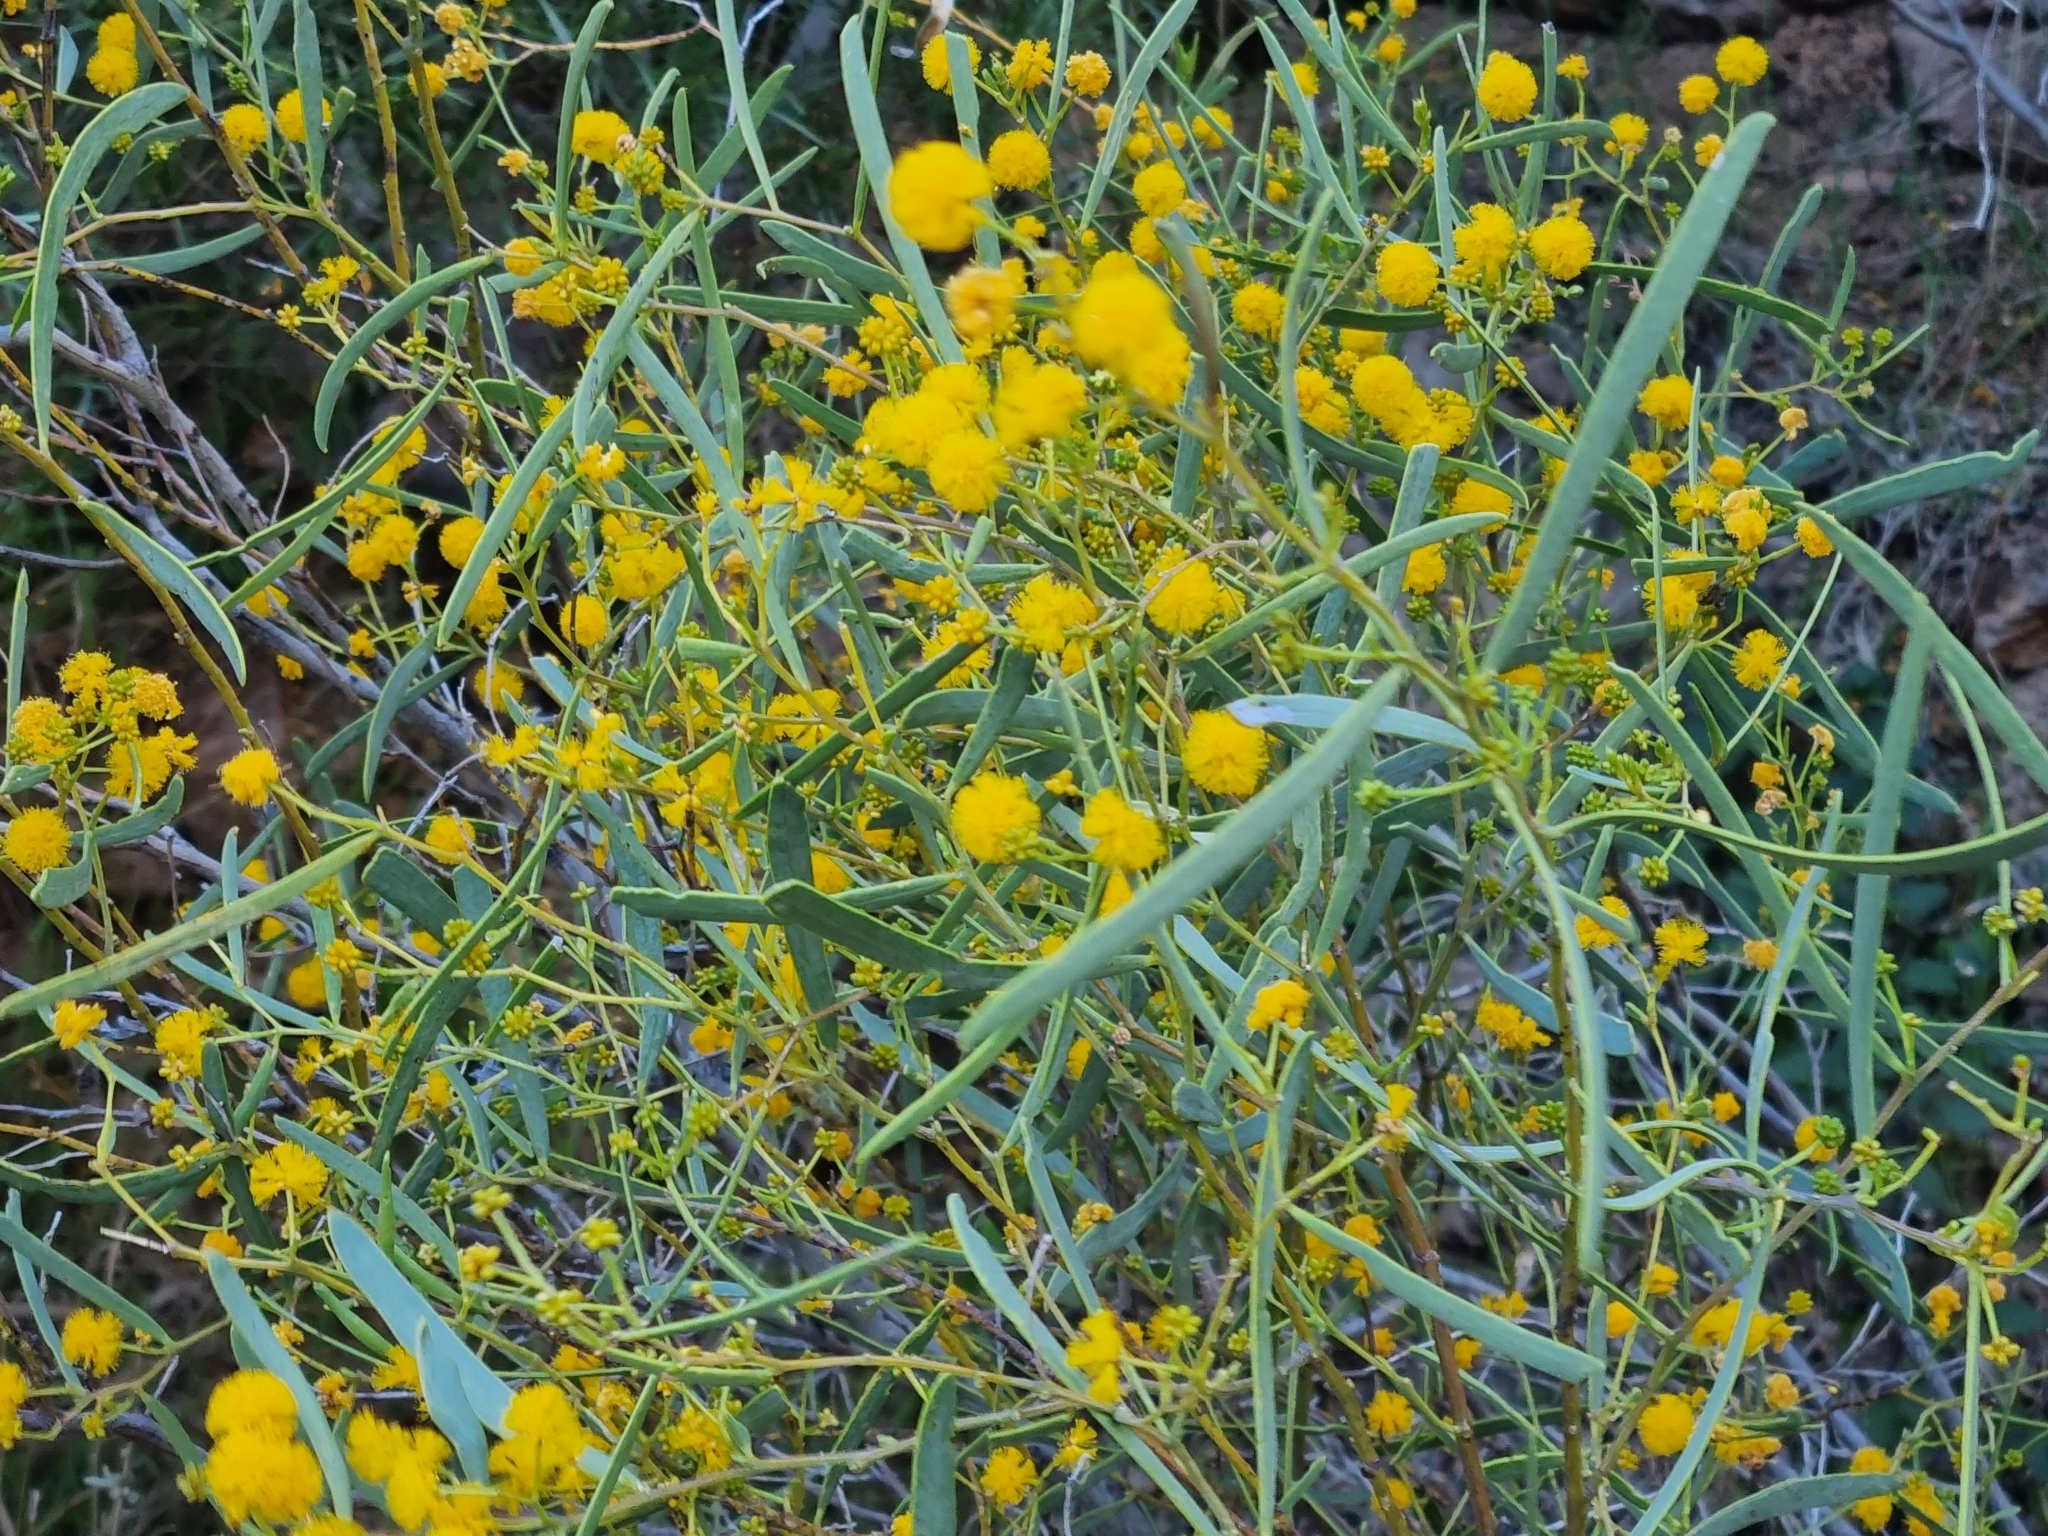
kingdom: Plantae
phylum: Tracheophyta
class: Magnoliopsida
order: Fabales
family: Fabaceae
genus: Acacia
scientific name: Acacia cupularis
